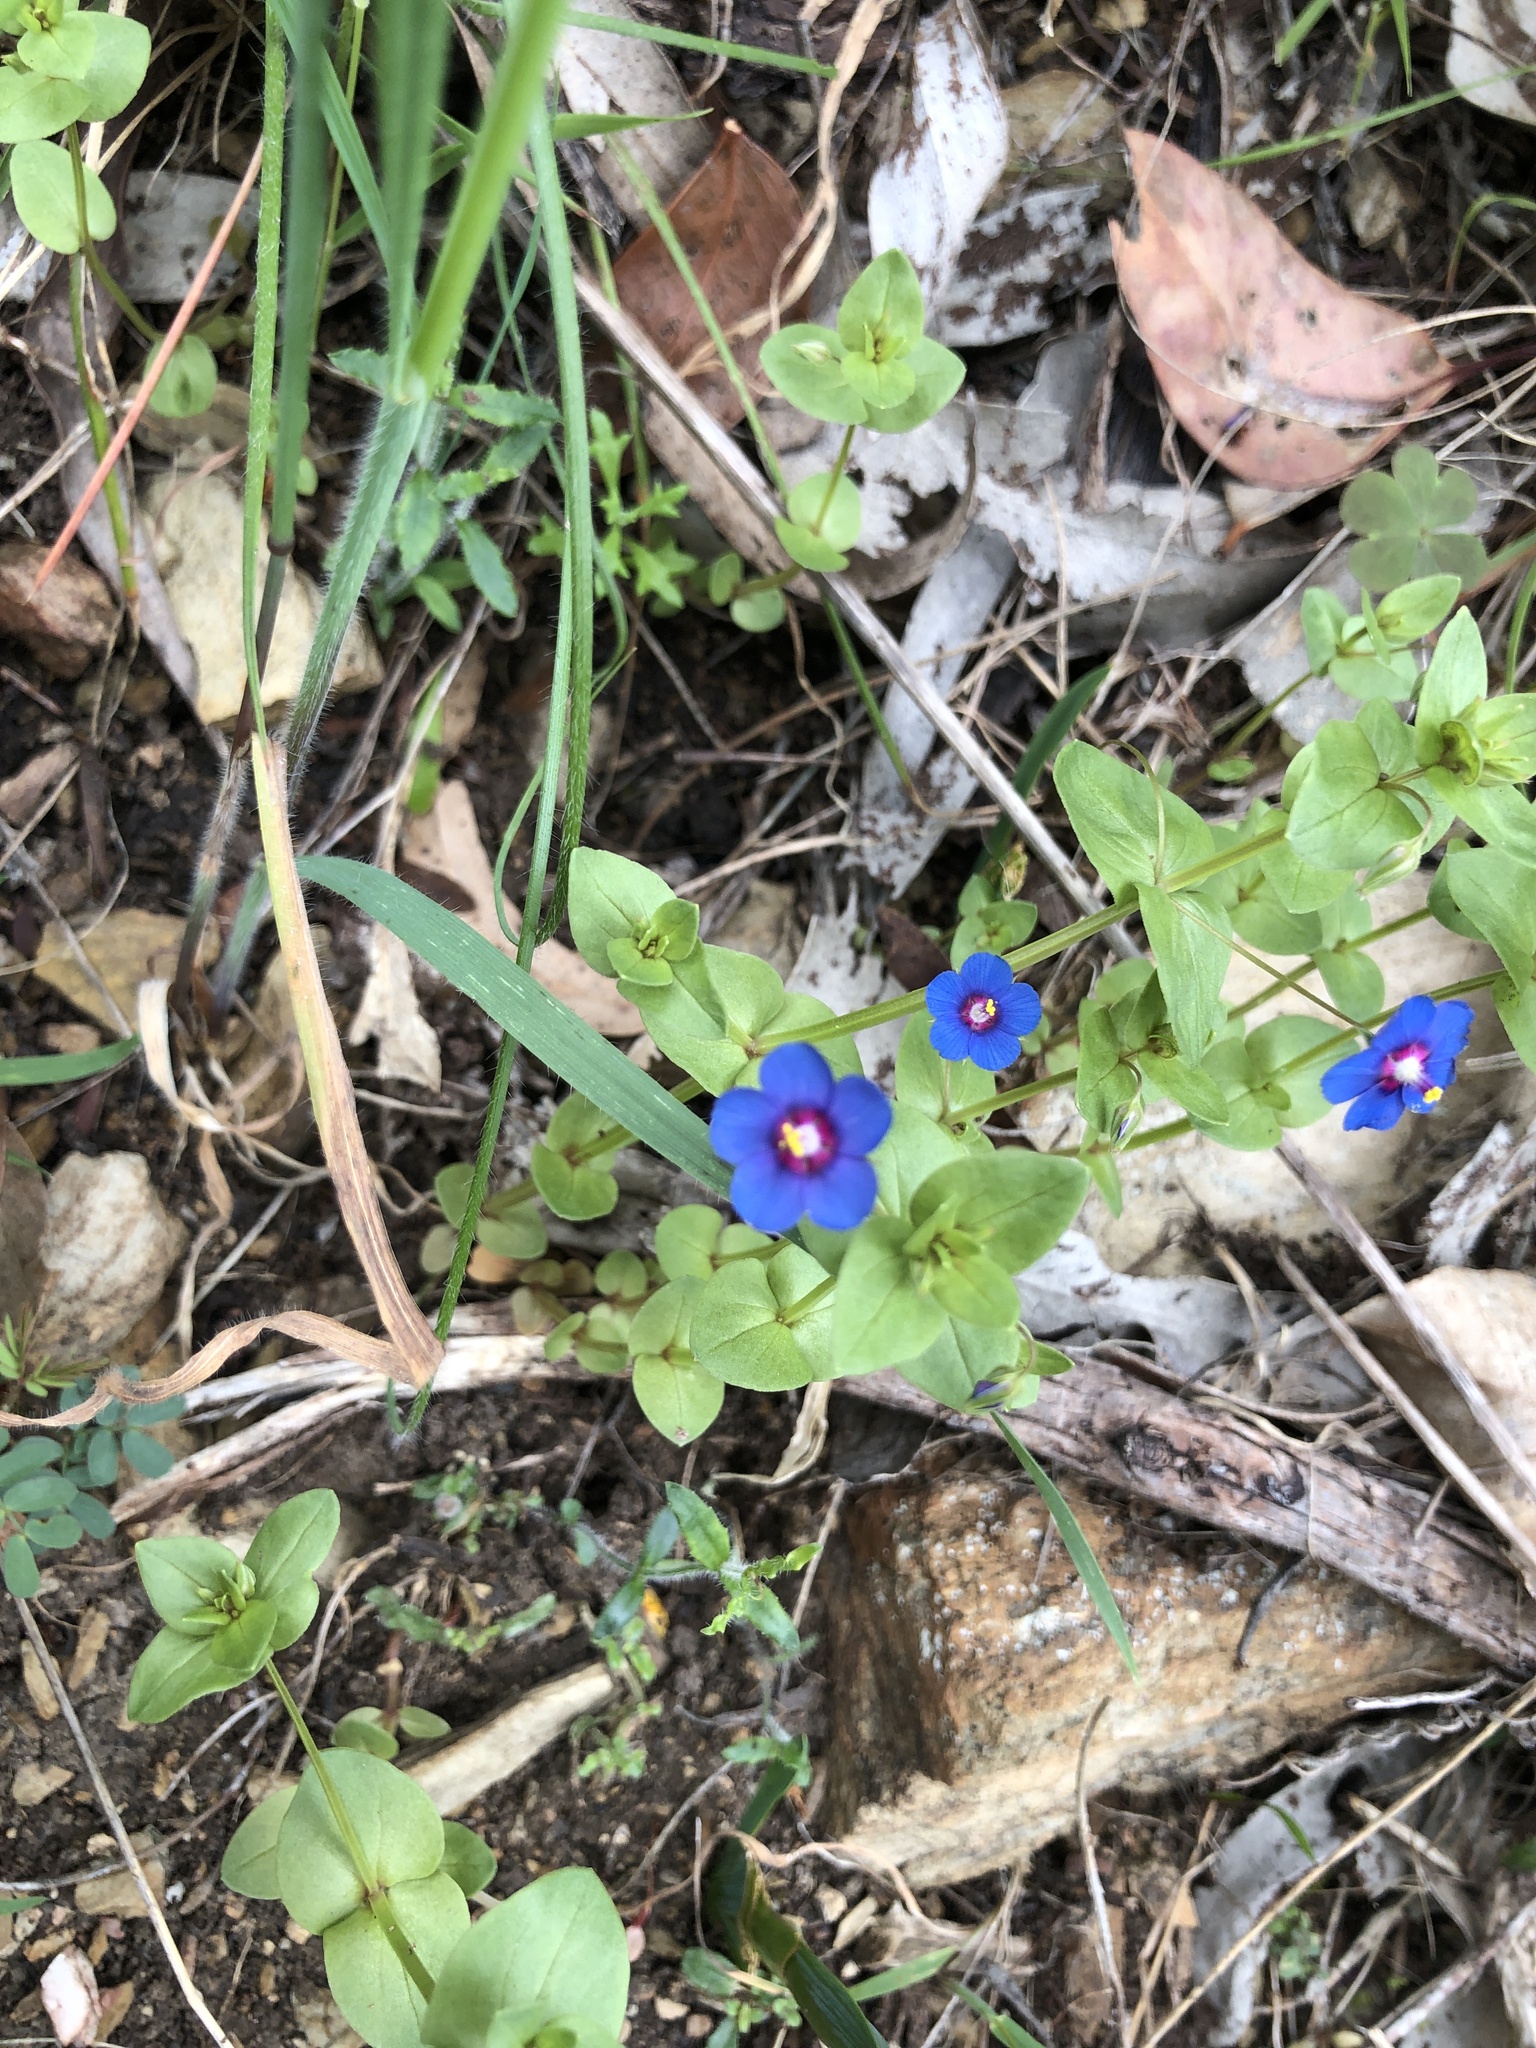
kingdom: Plantae
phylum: Tracheophyta
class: Magnoliopsida
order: Ericales
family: Primulaceae
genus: Lysimachia
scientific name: Lysimachia loeflingii
